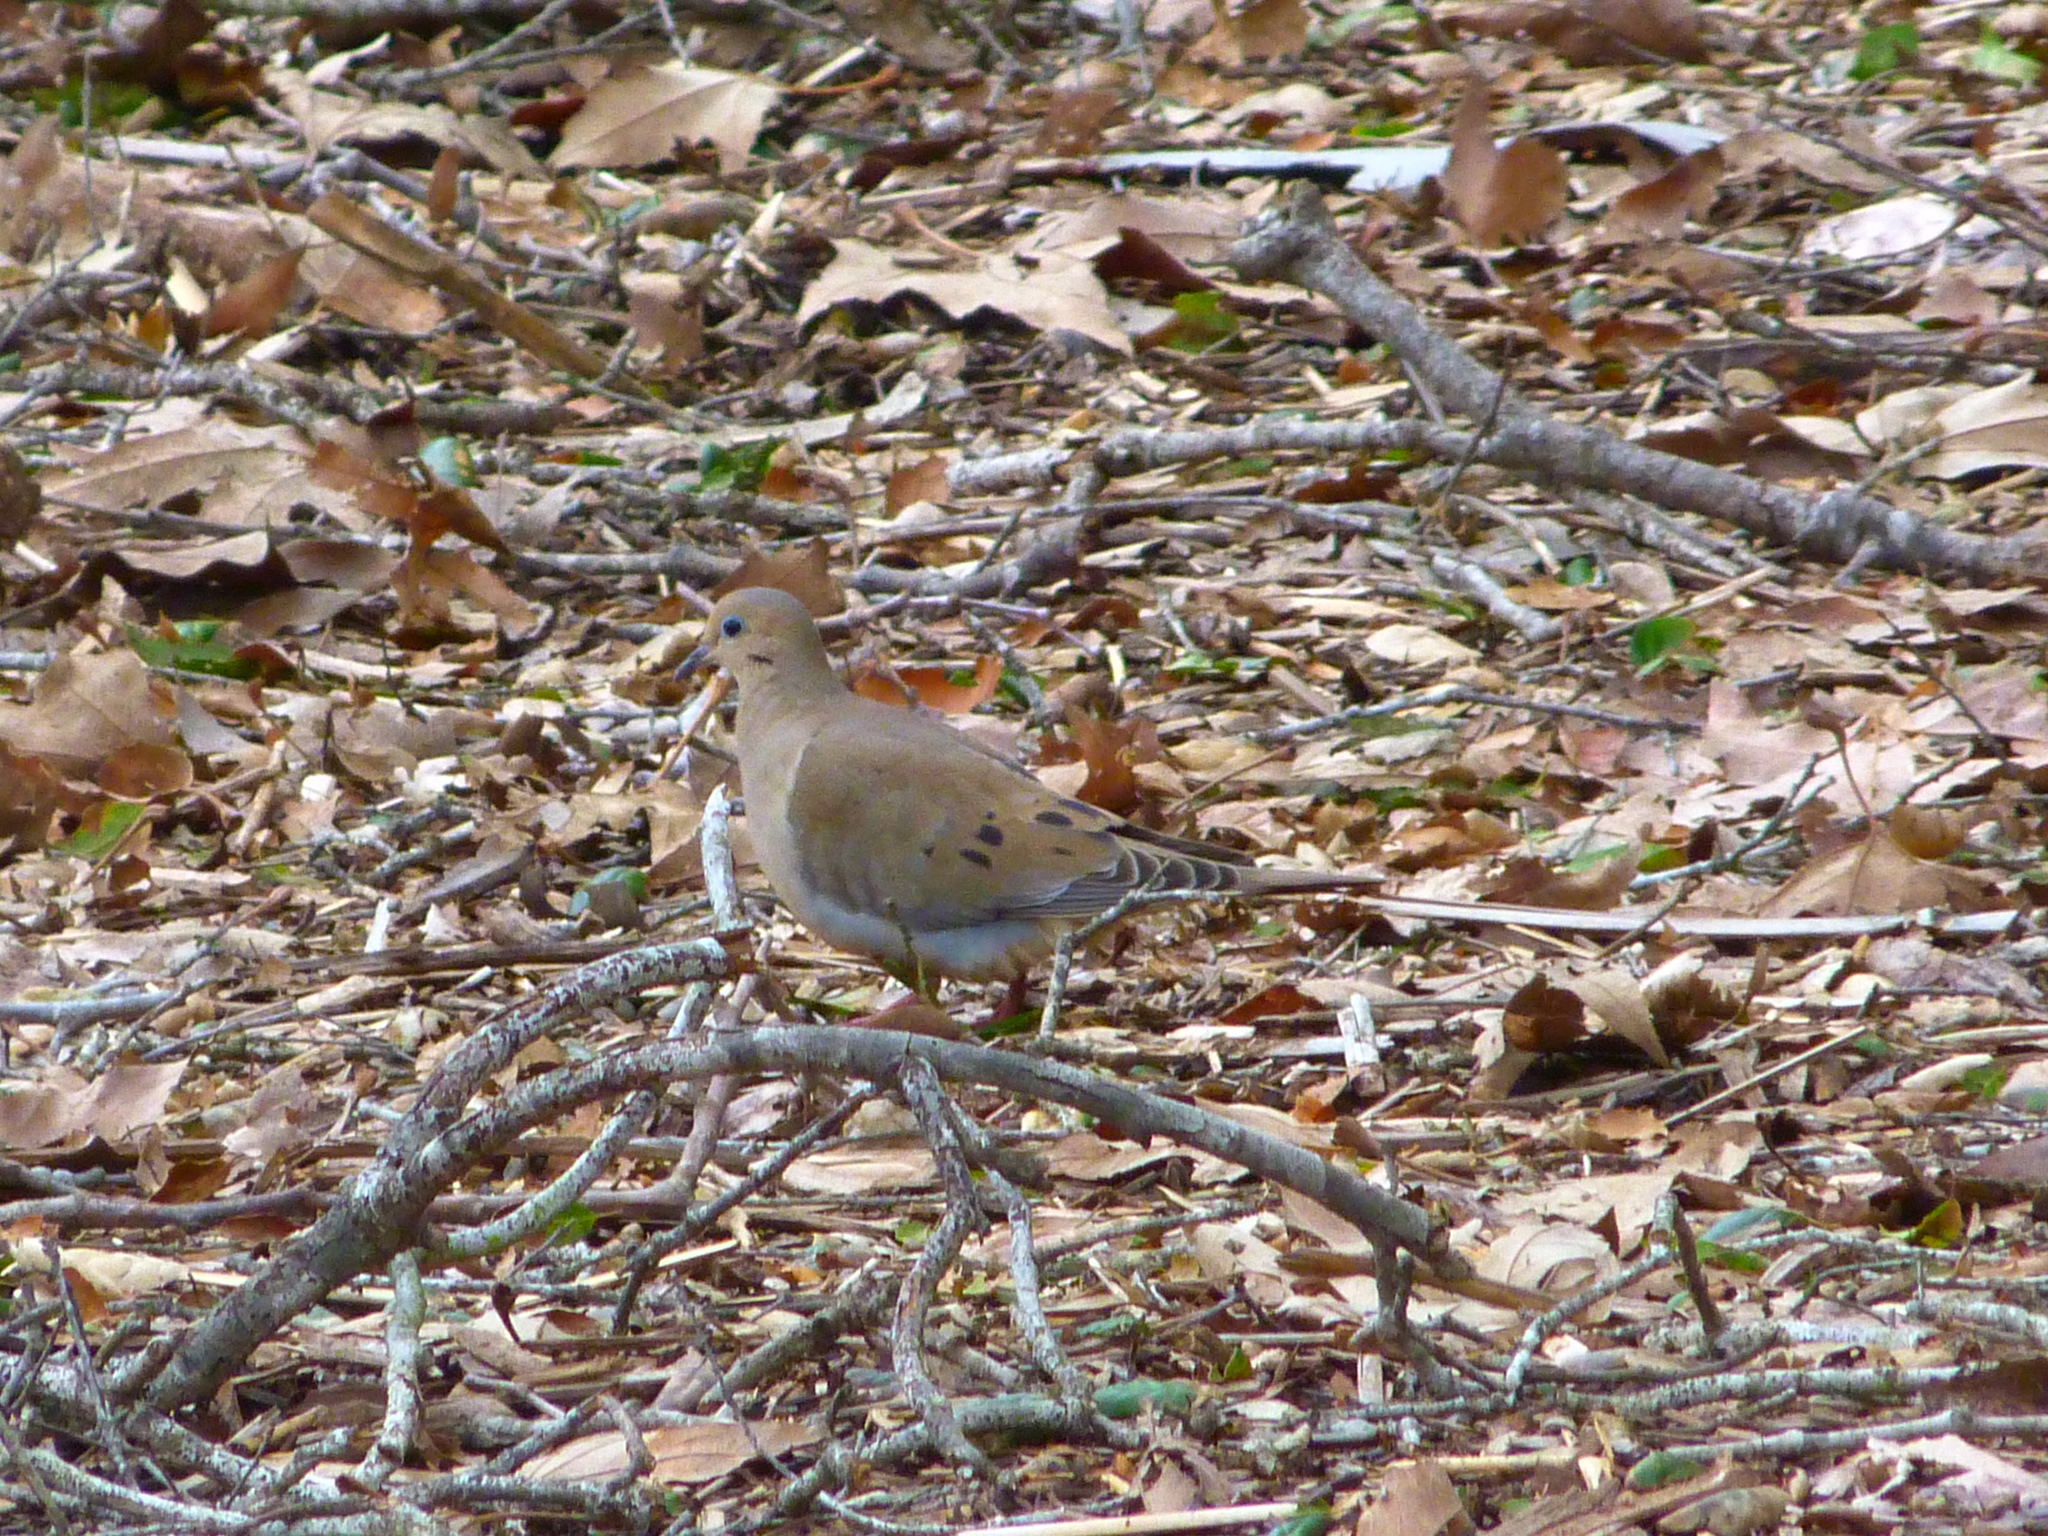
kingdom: Animalia
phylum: Chordata
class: Aves
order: Columbiformes
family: Columbidae
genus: Zenaida
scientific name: Zenaida macroura
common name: Mourning dove
